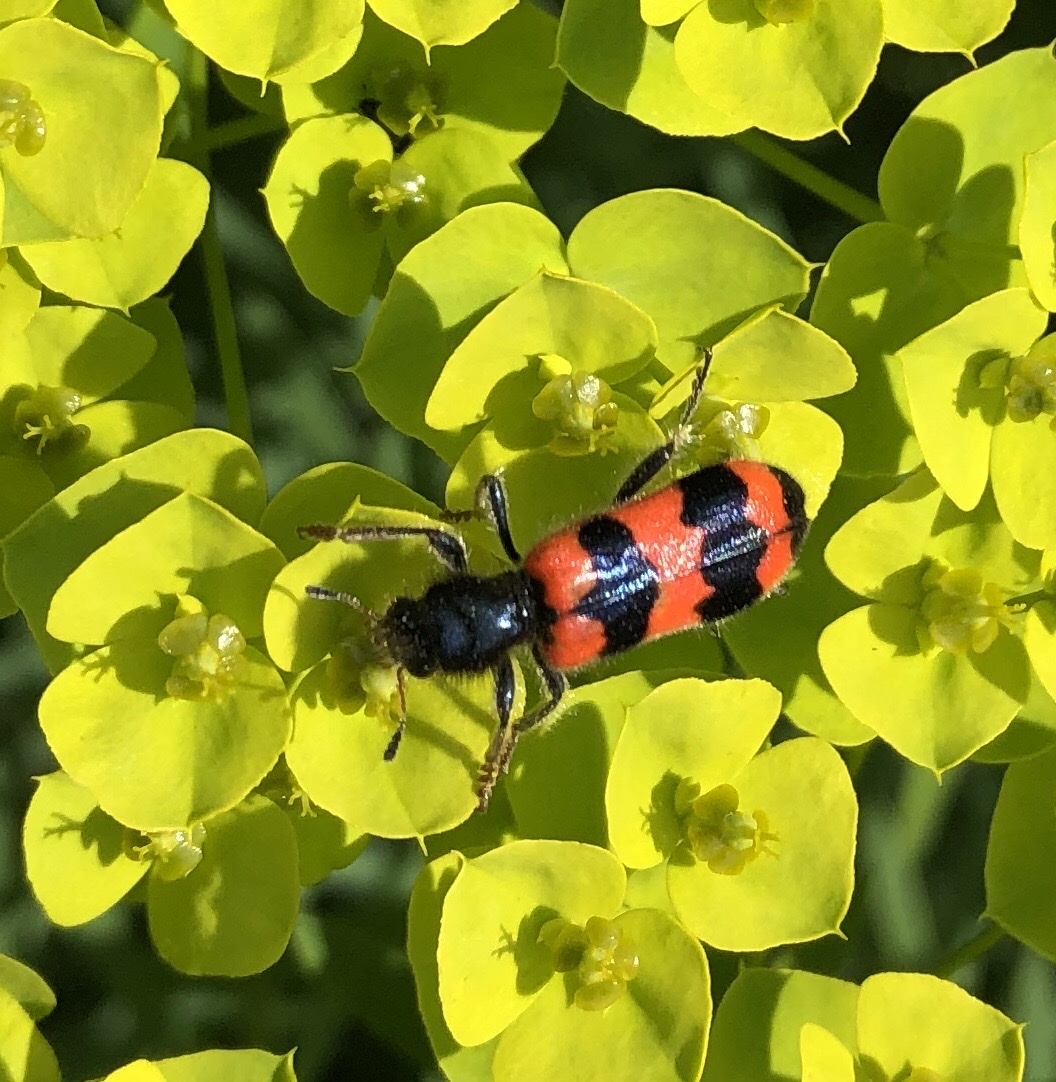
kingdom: Animalia
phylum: Arthropoda
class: Insecta
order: Coleoptera
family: Cleridae
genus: Trichodes
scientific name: Trichodes apiarius
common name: Bee-eating beetle
